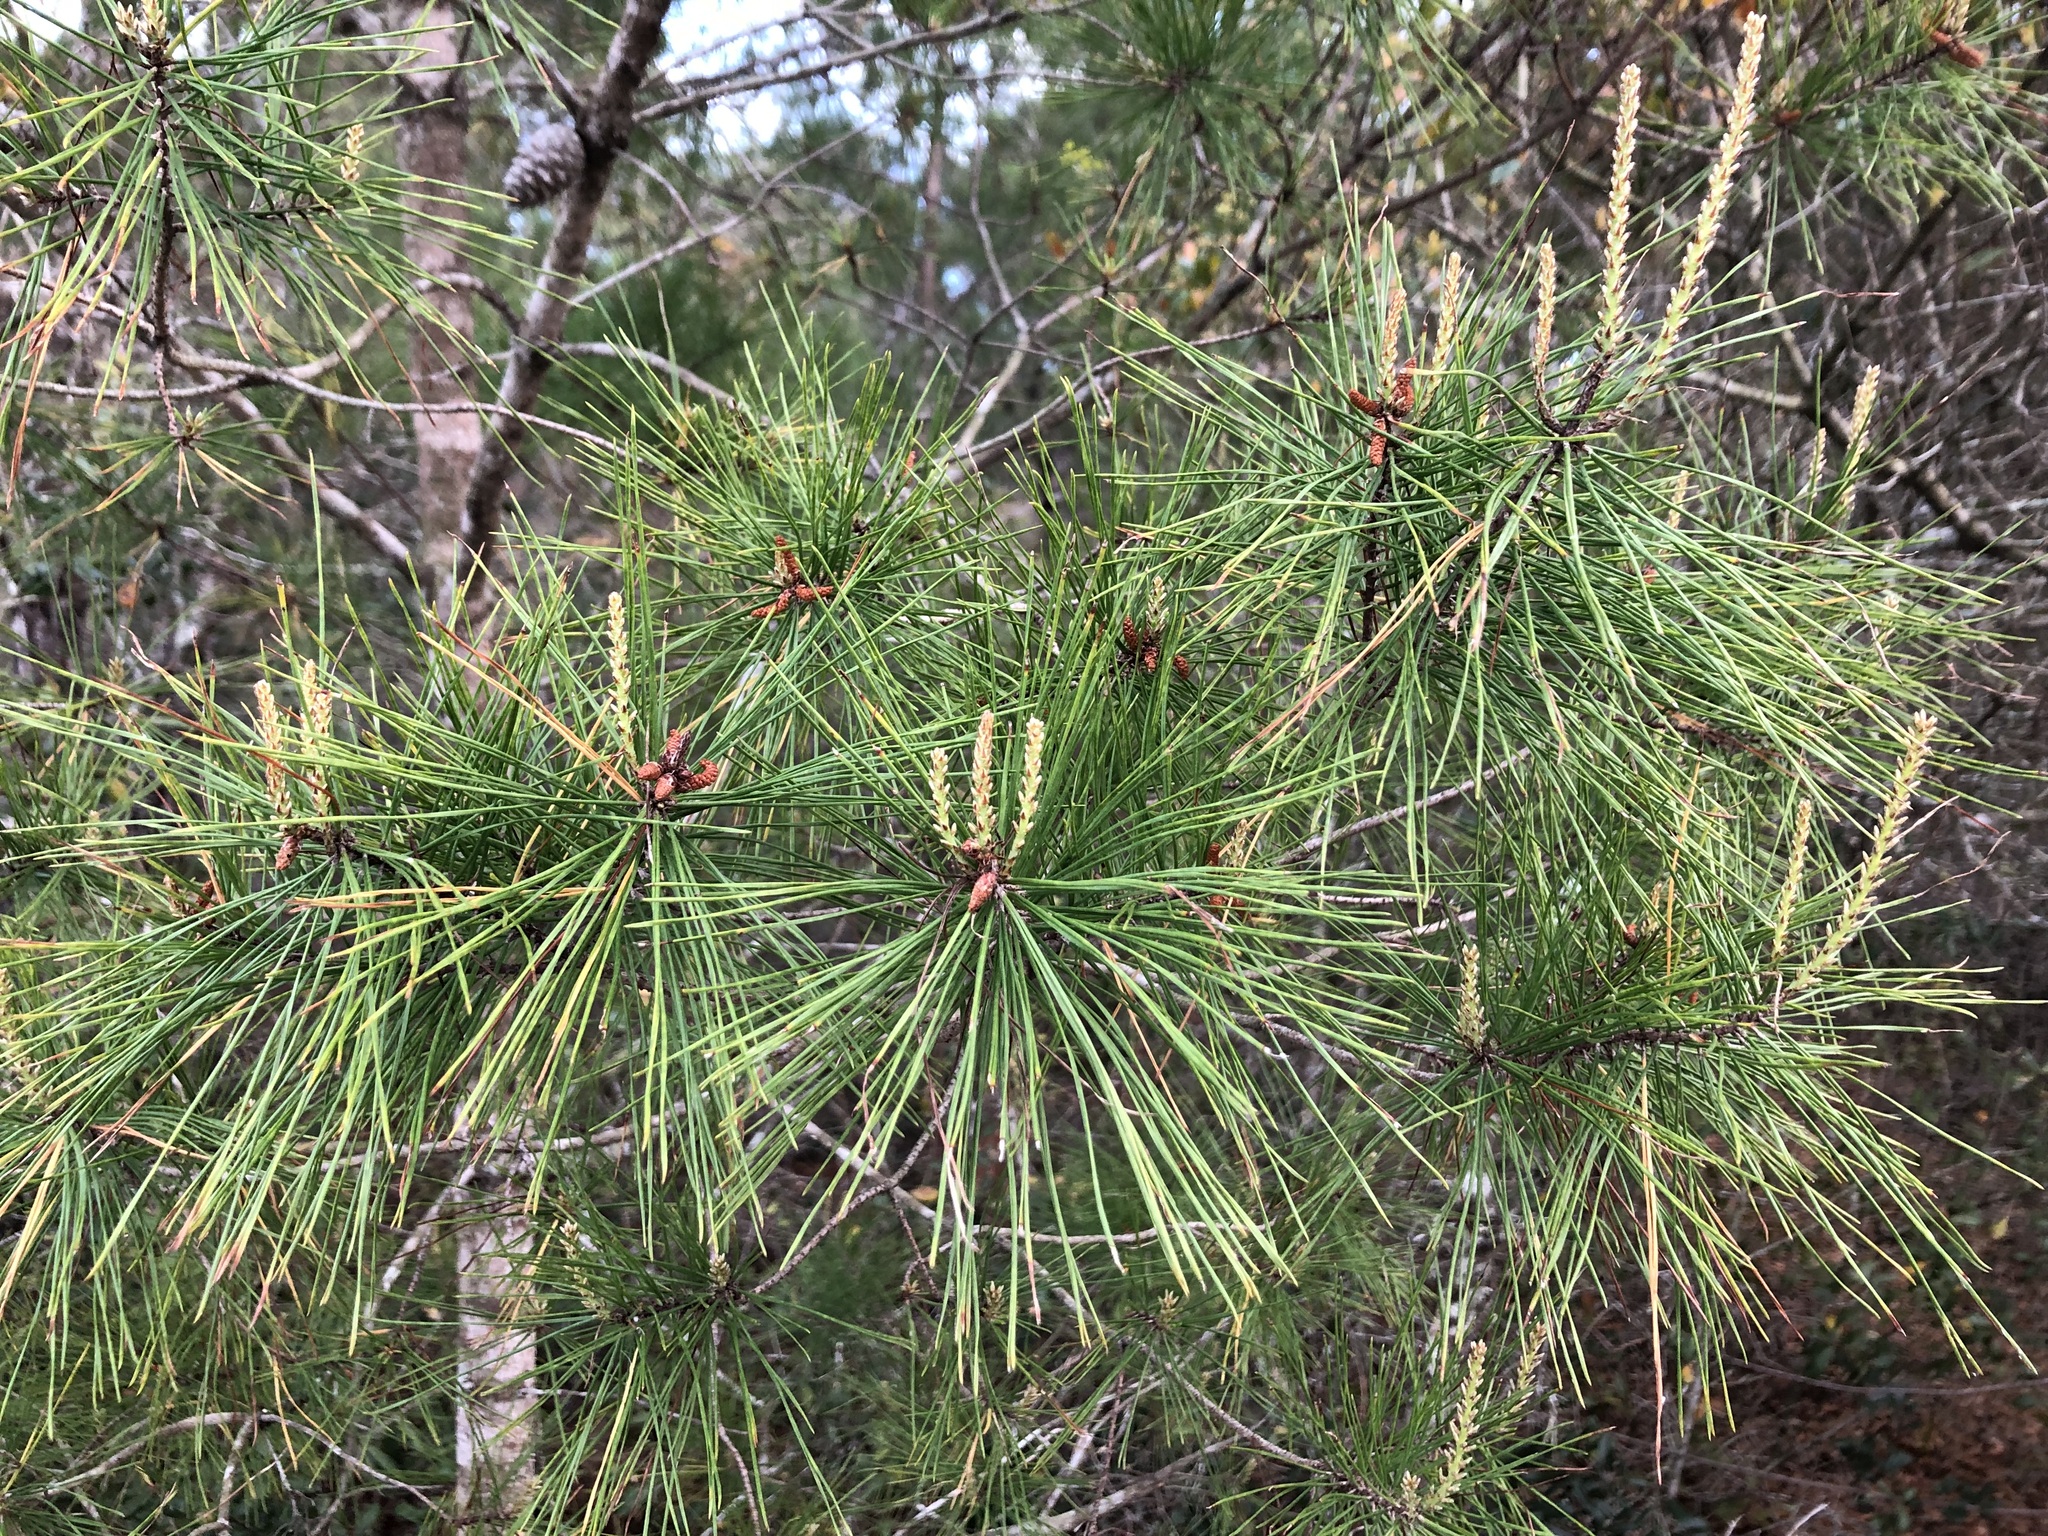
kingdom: Plantae
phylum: Tracheophyta
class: Pinopsida
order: Pinales
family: Pinaceae
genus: Pinus
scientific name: Pinus clausa
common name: Sand pine
